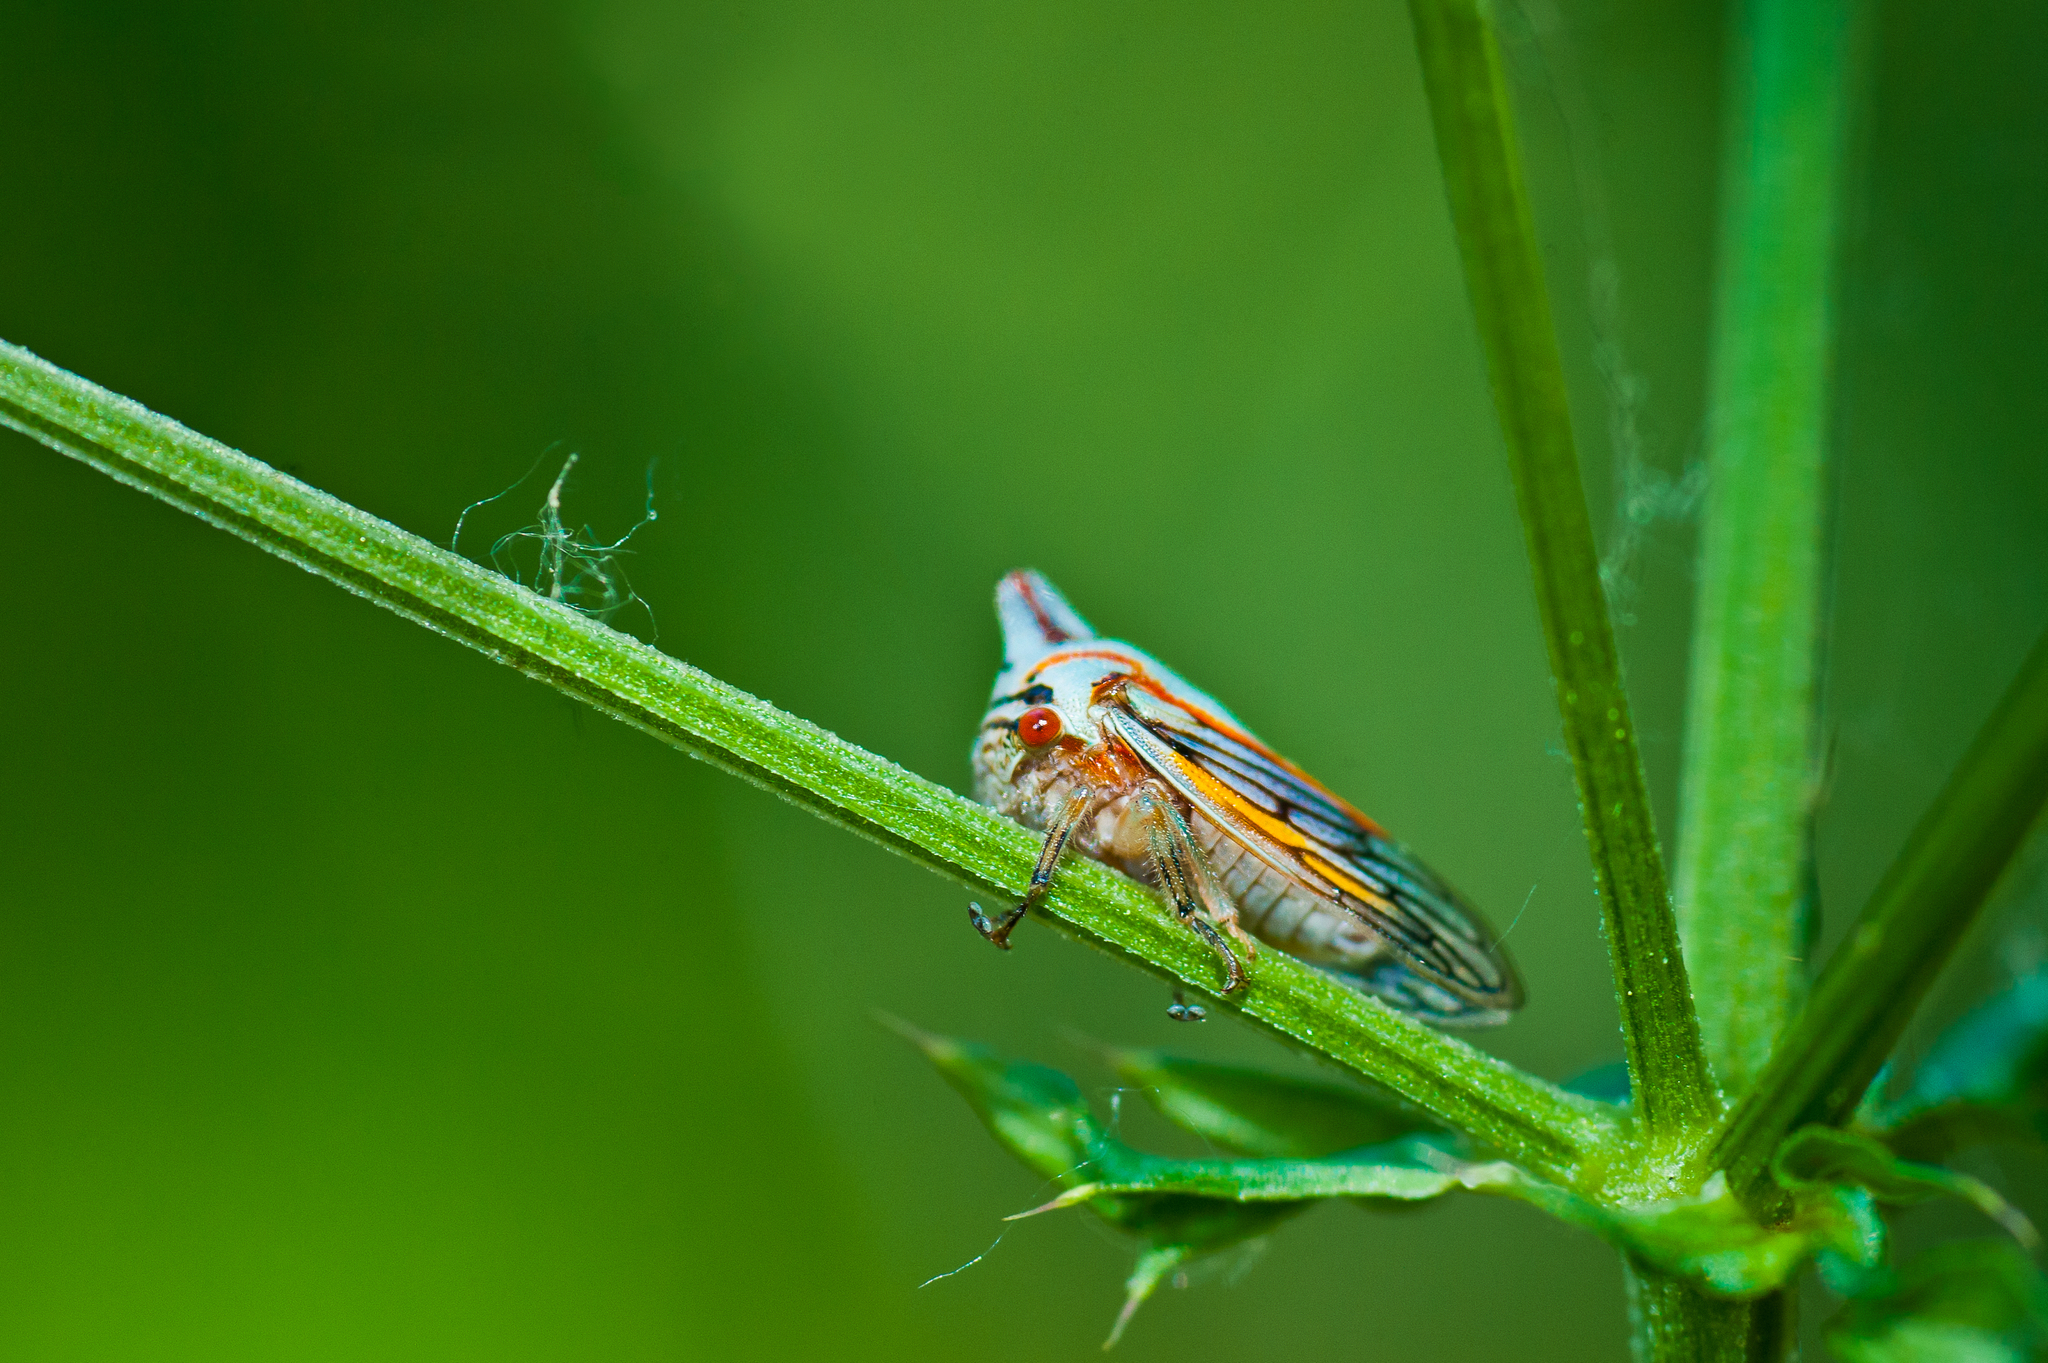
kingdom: Animalia
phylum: Arthropoda
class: Insecta
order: Hemiptera
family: Membracidae
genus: Platycotis
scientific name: Platycotis vittatus
